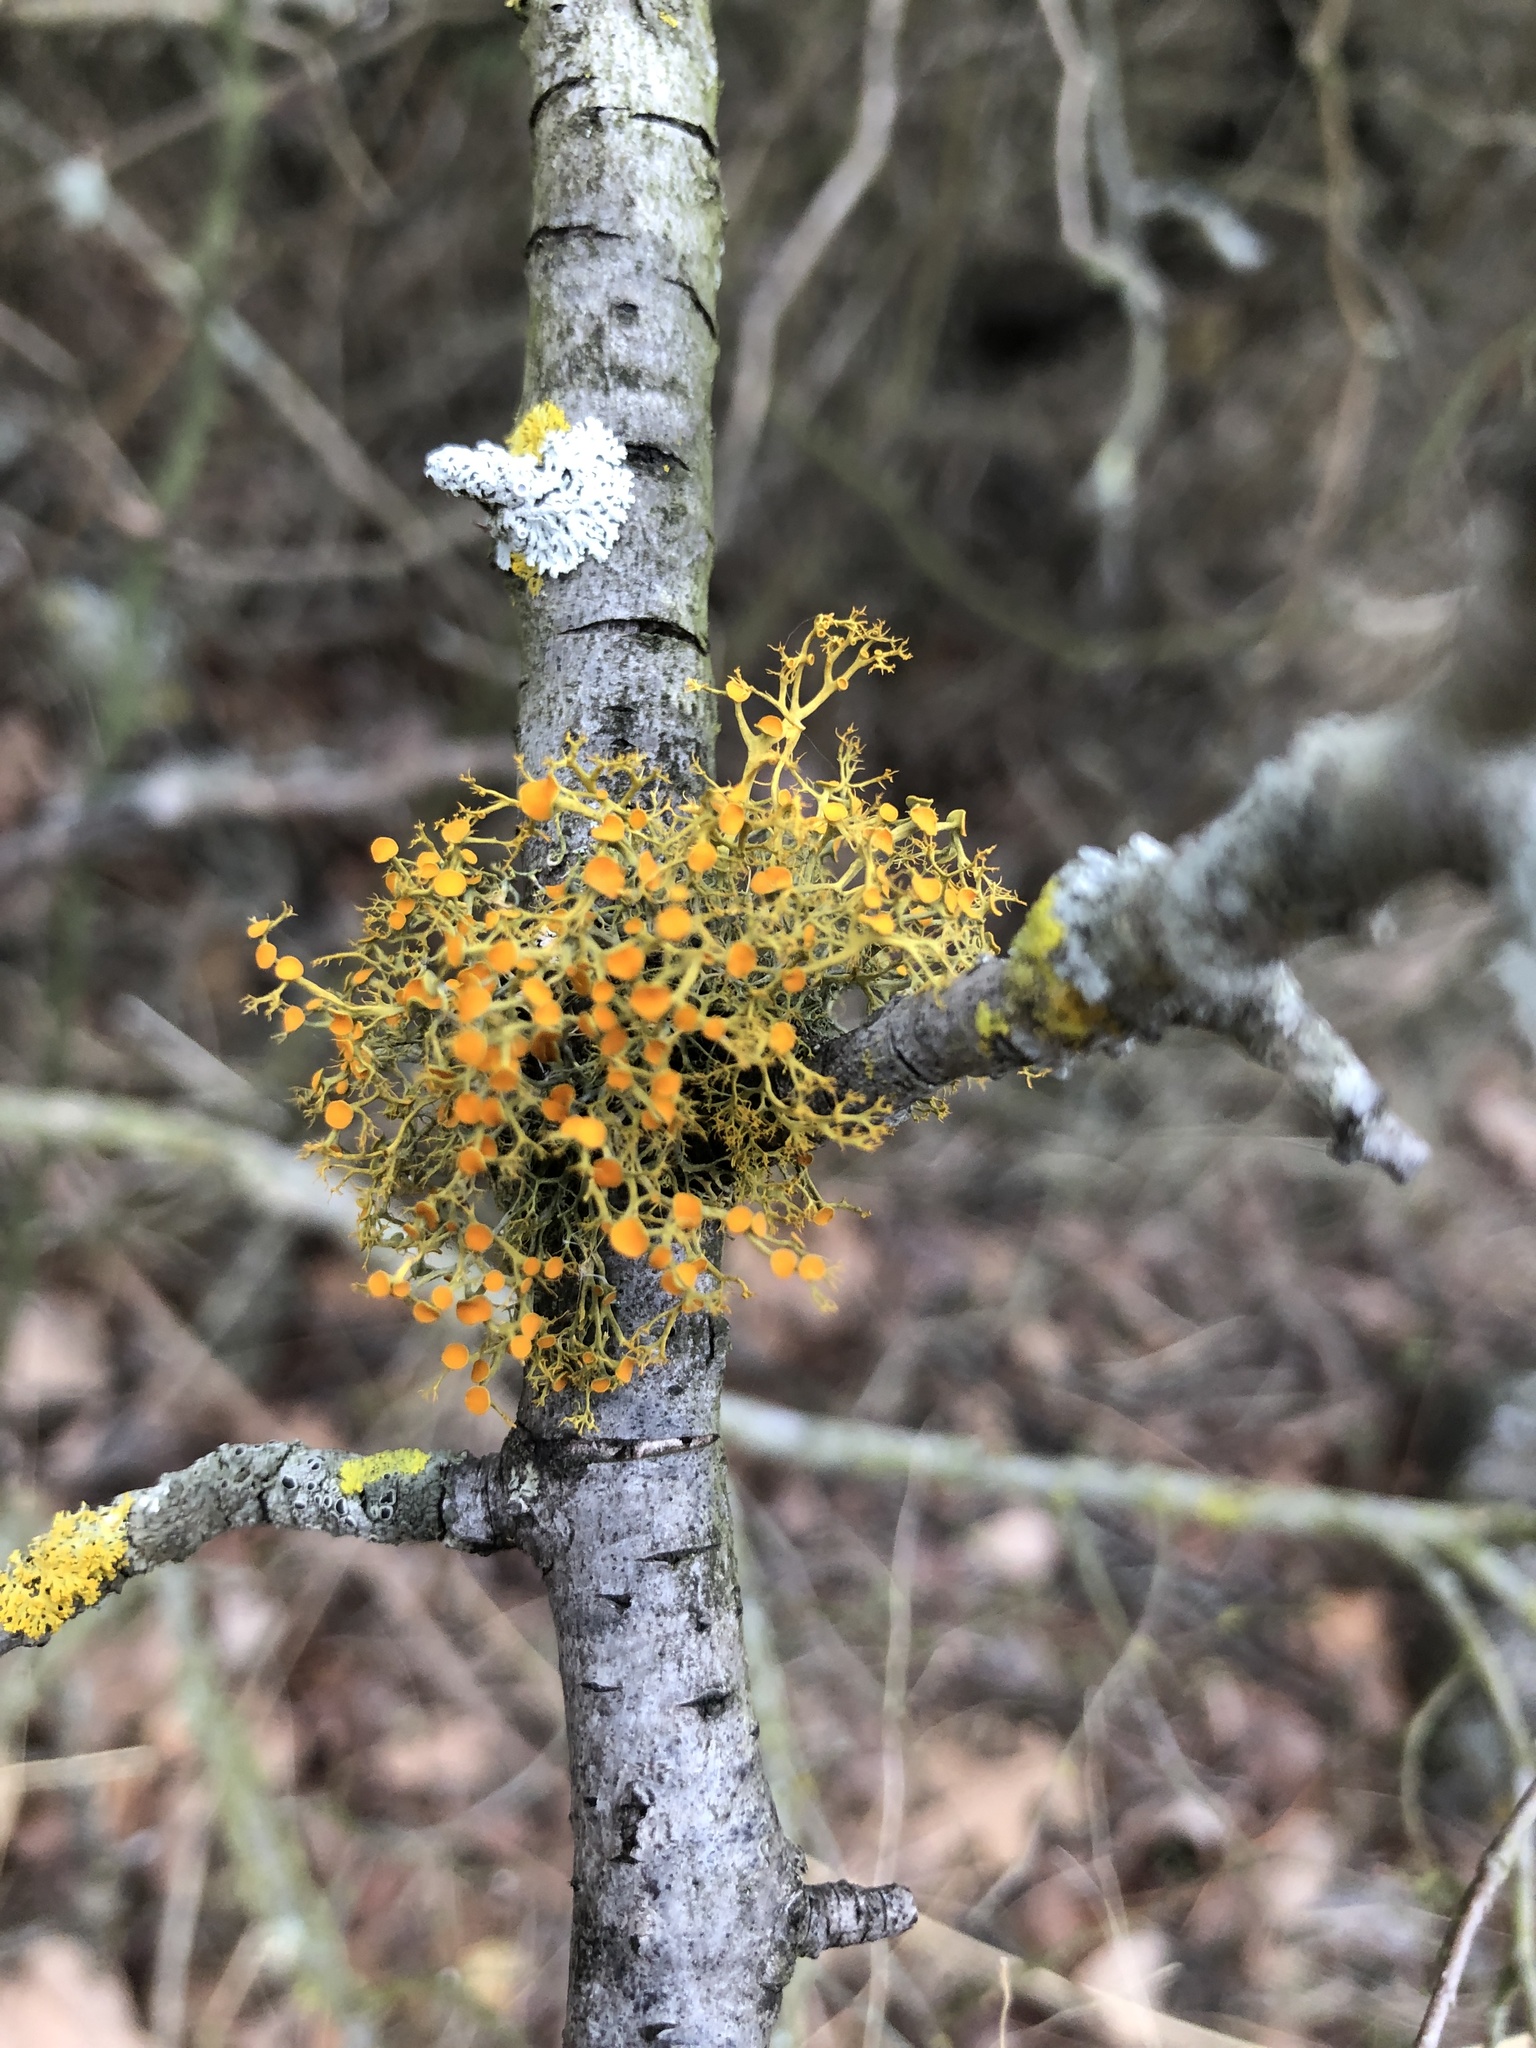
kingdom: Fungi
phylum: Ascomycota
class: Lecanoromycetes
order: Teloschistales
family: Teloschistaceae
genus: Teloschistes
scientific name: Teloschistes exilis
